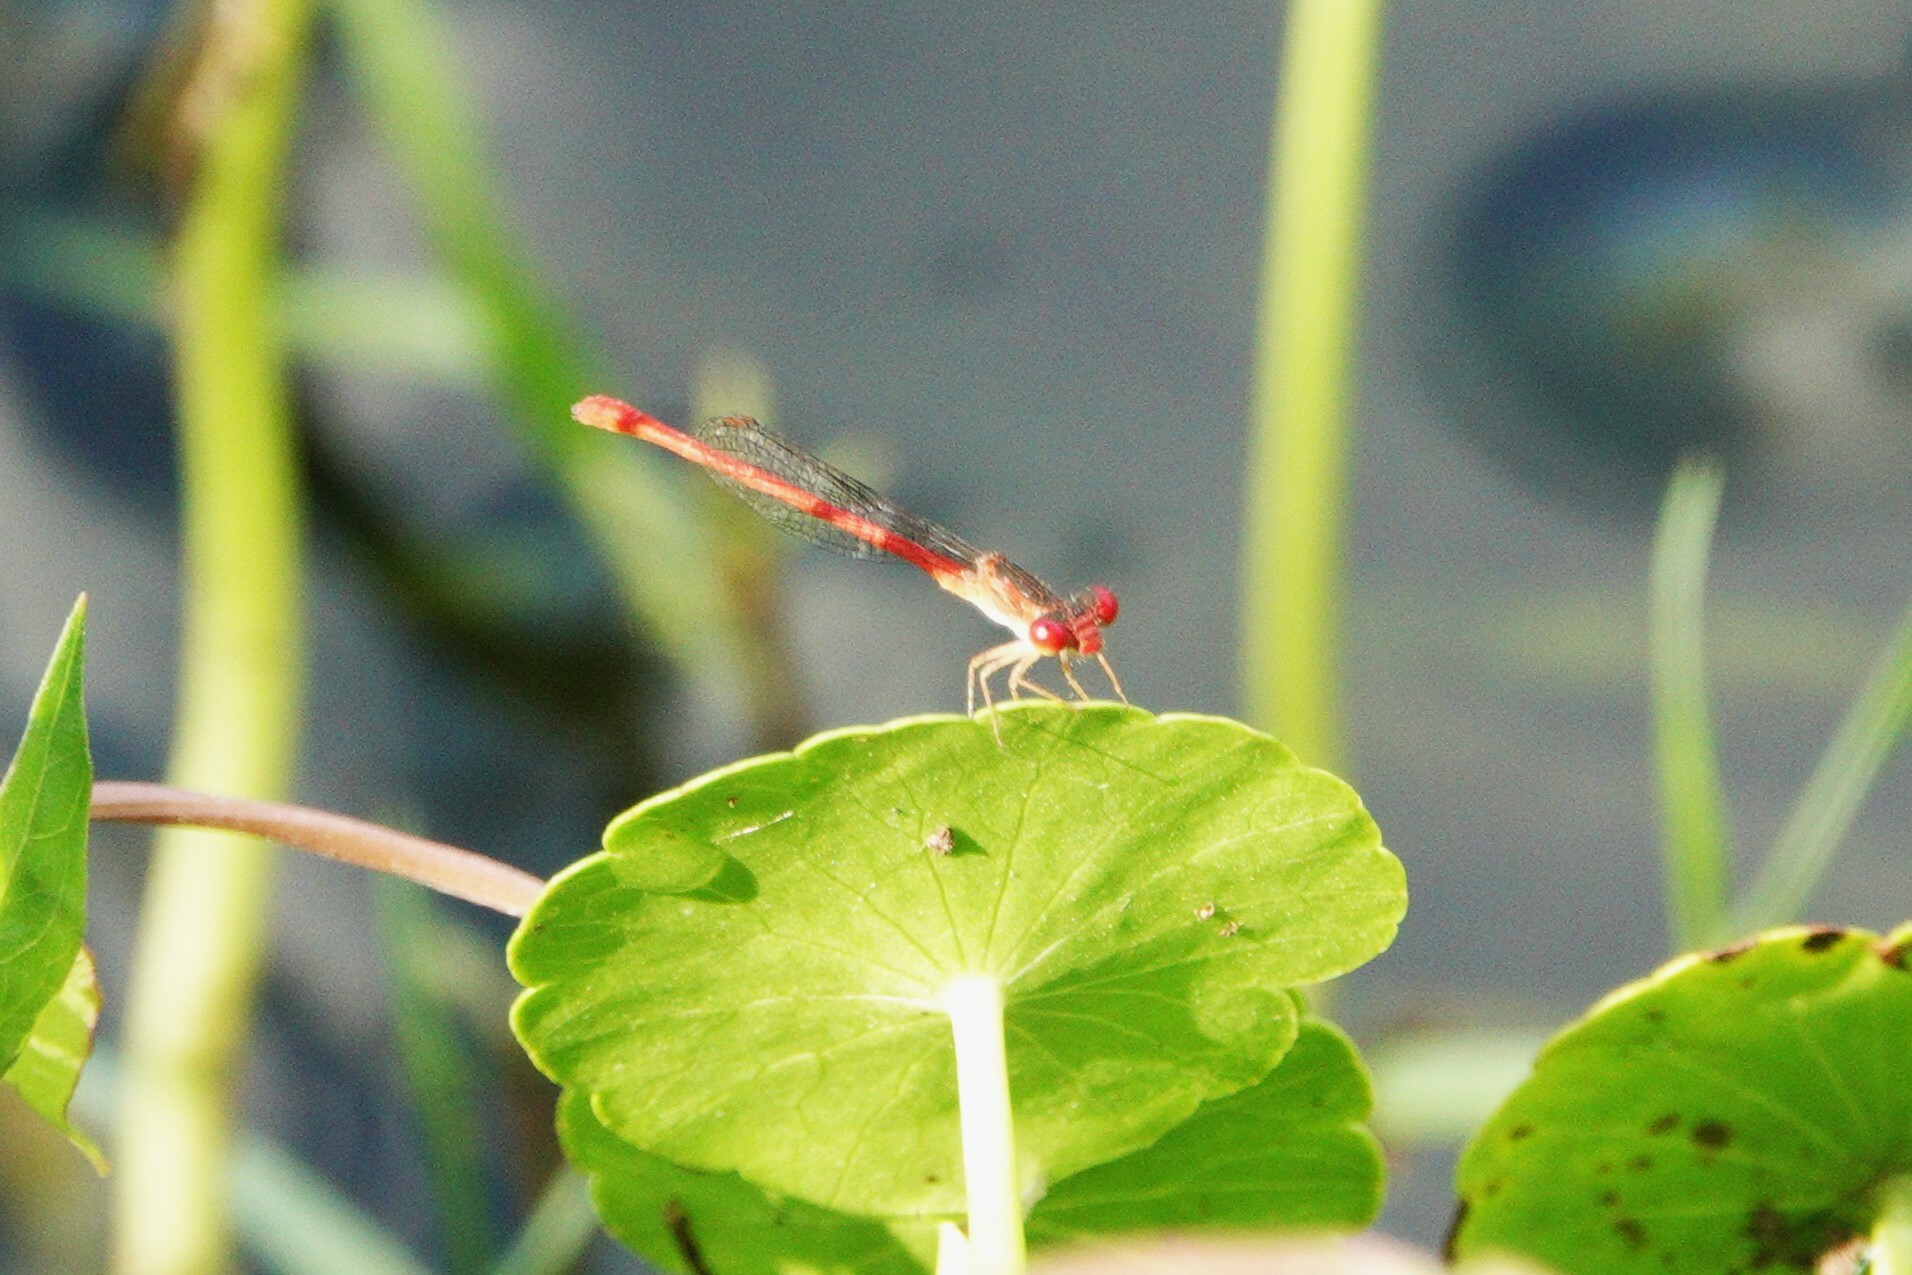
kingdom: Animalia
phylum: Arthropoda
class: Insecta
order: Odonata
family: Coenagrionidae
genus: Telebasis
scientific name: Telebasis byersi
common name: Duckweed firetail
